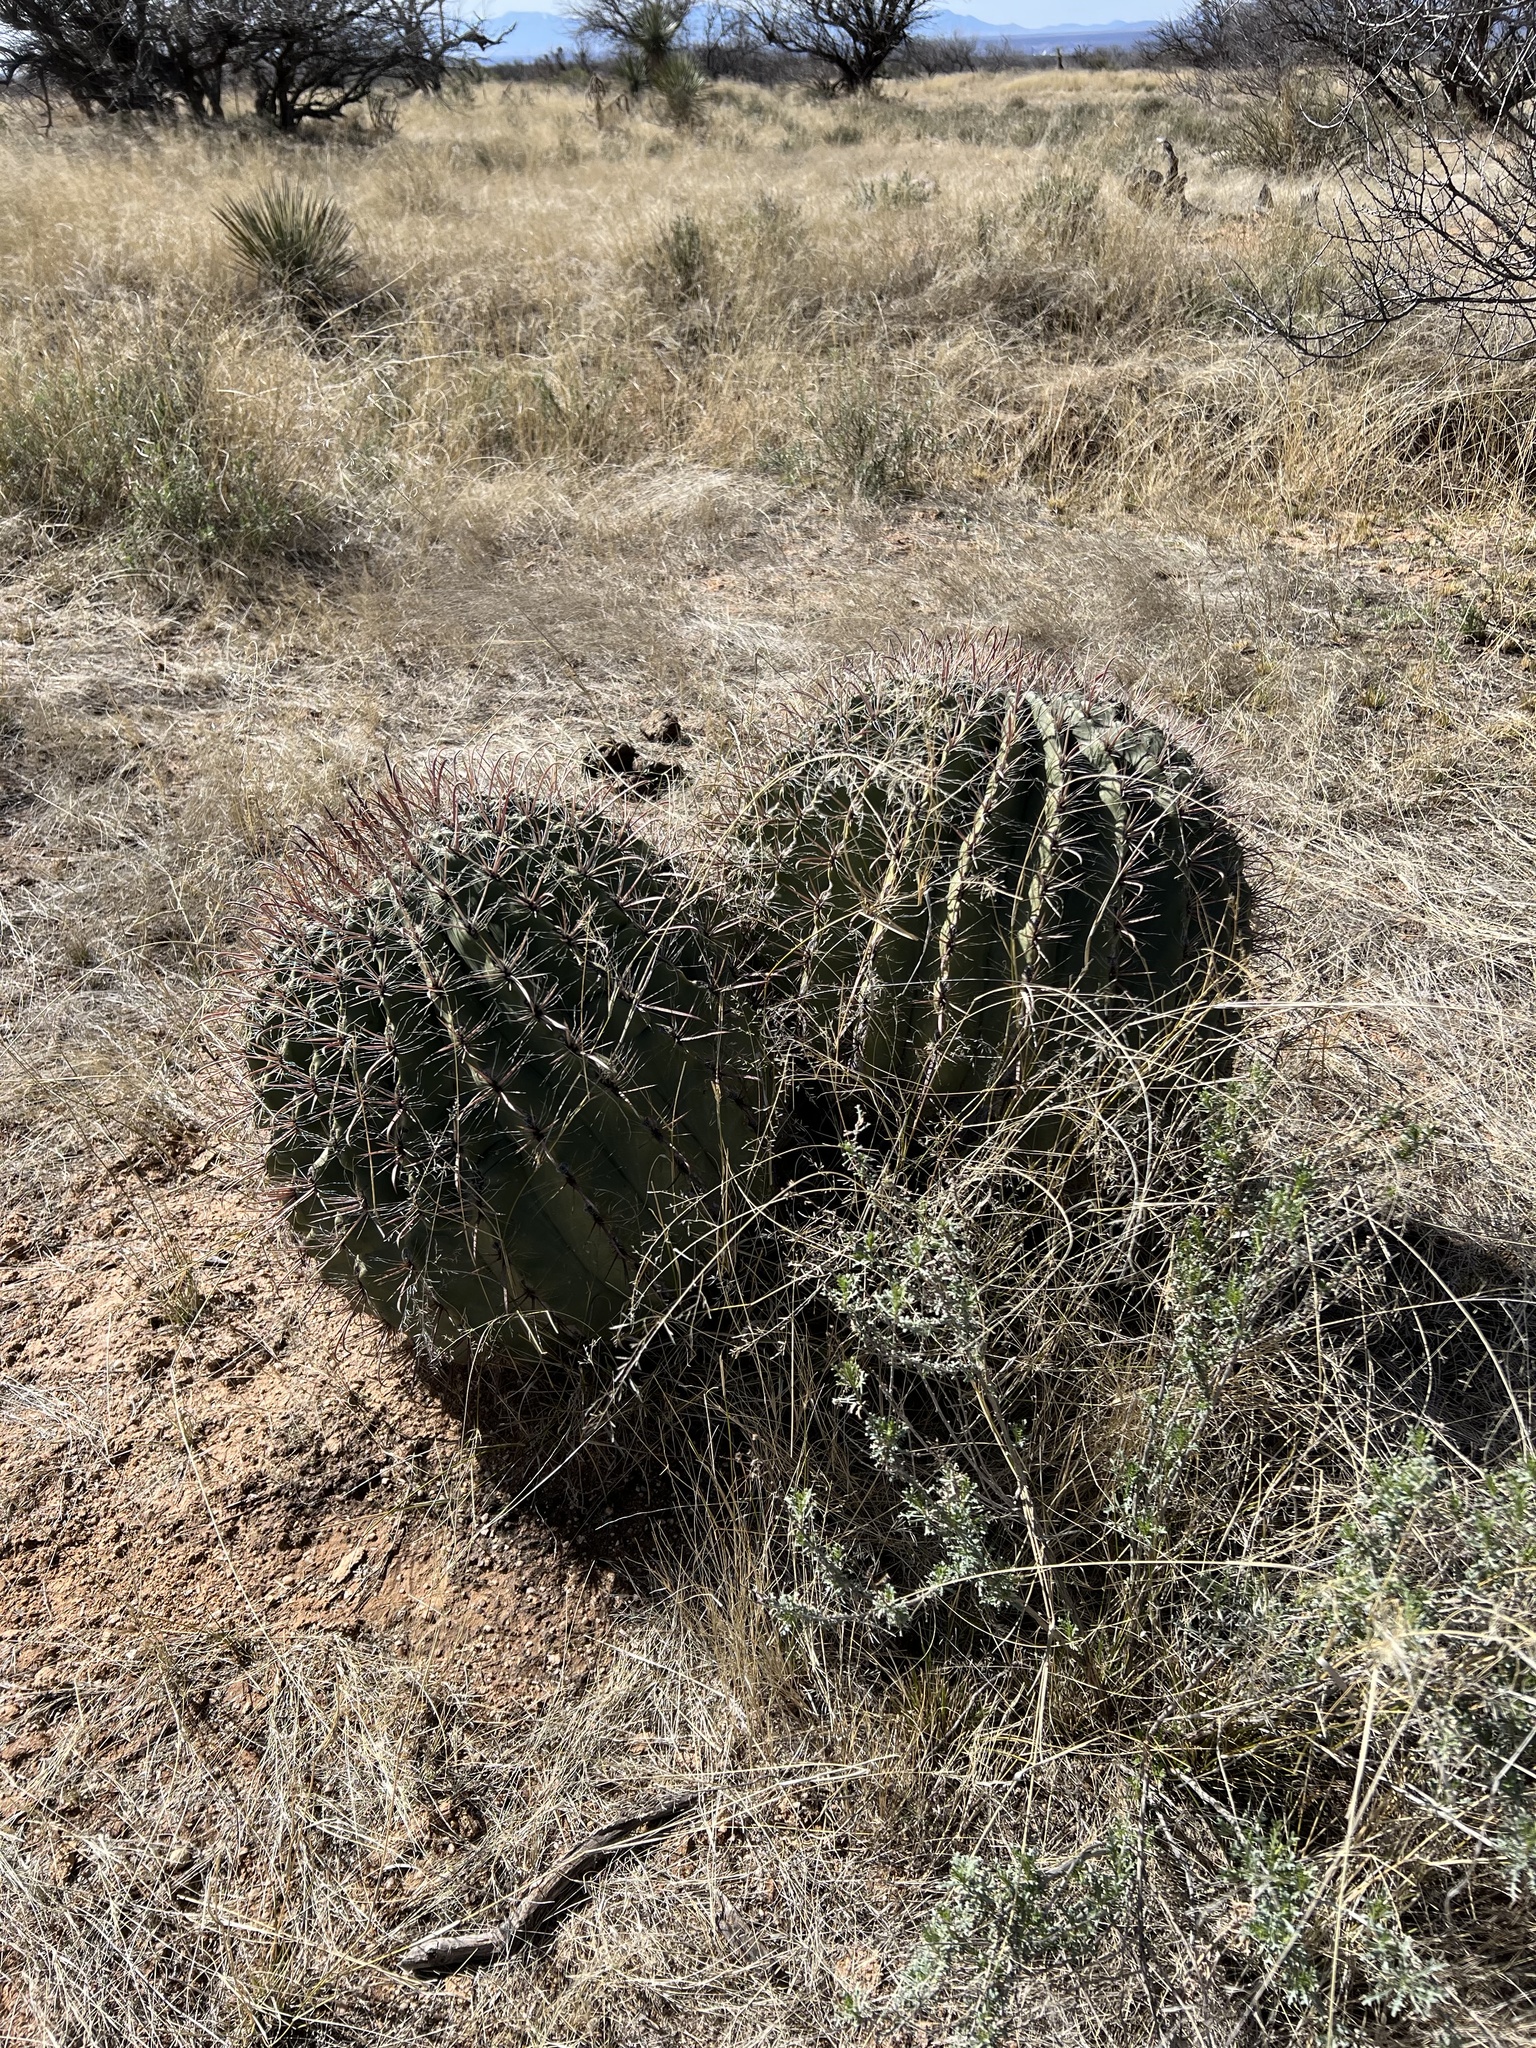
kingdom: Plantae
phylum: Tracheophyta
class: Magnoliopsida
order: Caryophyllales
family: Cactaceae
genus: Ferocactus
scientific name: Ferocactus wislizeni
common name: Candy barrel cactus
